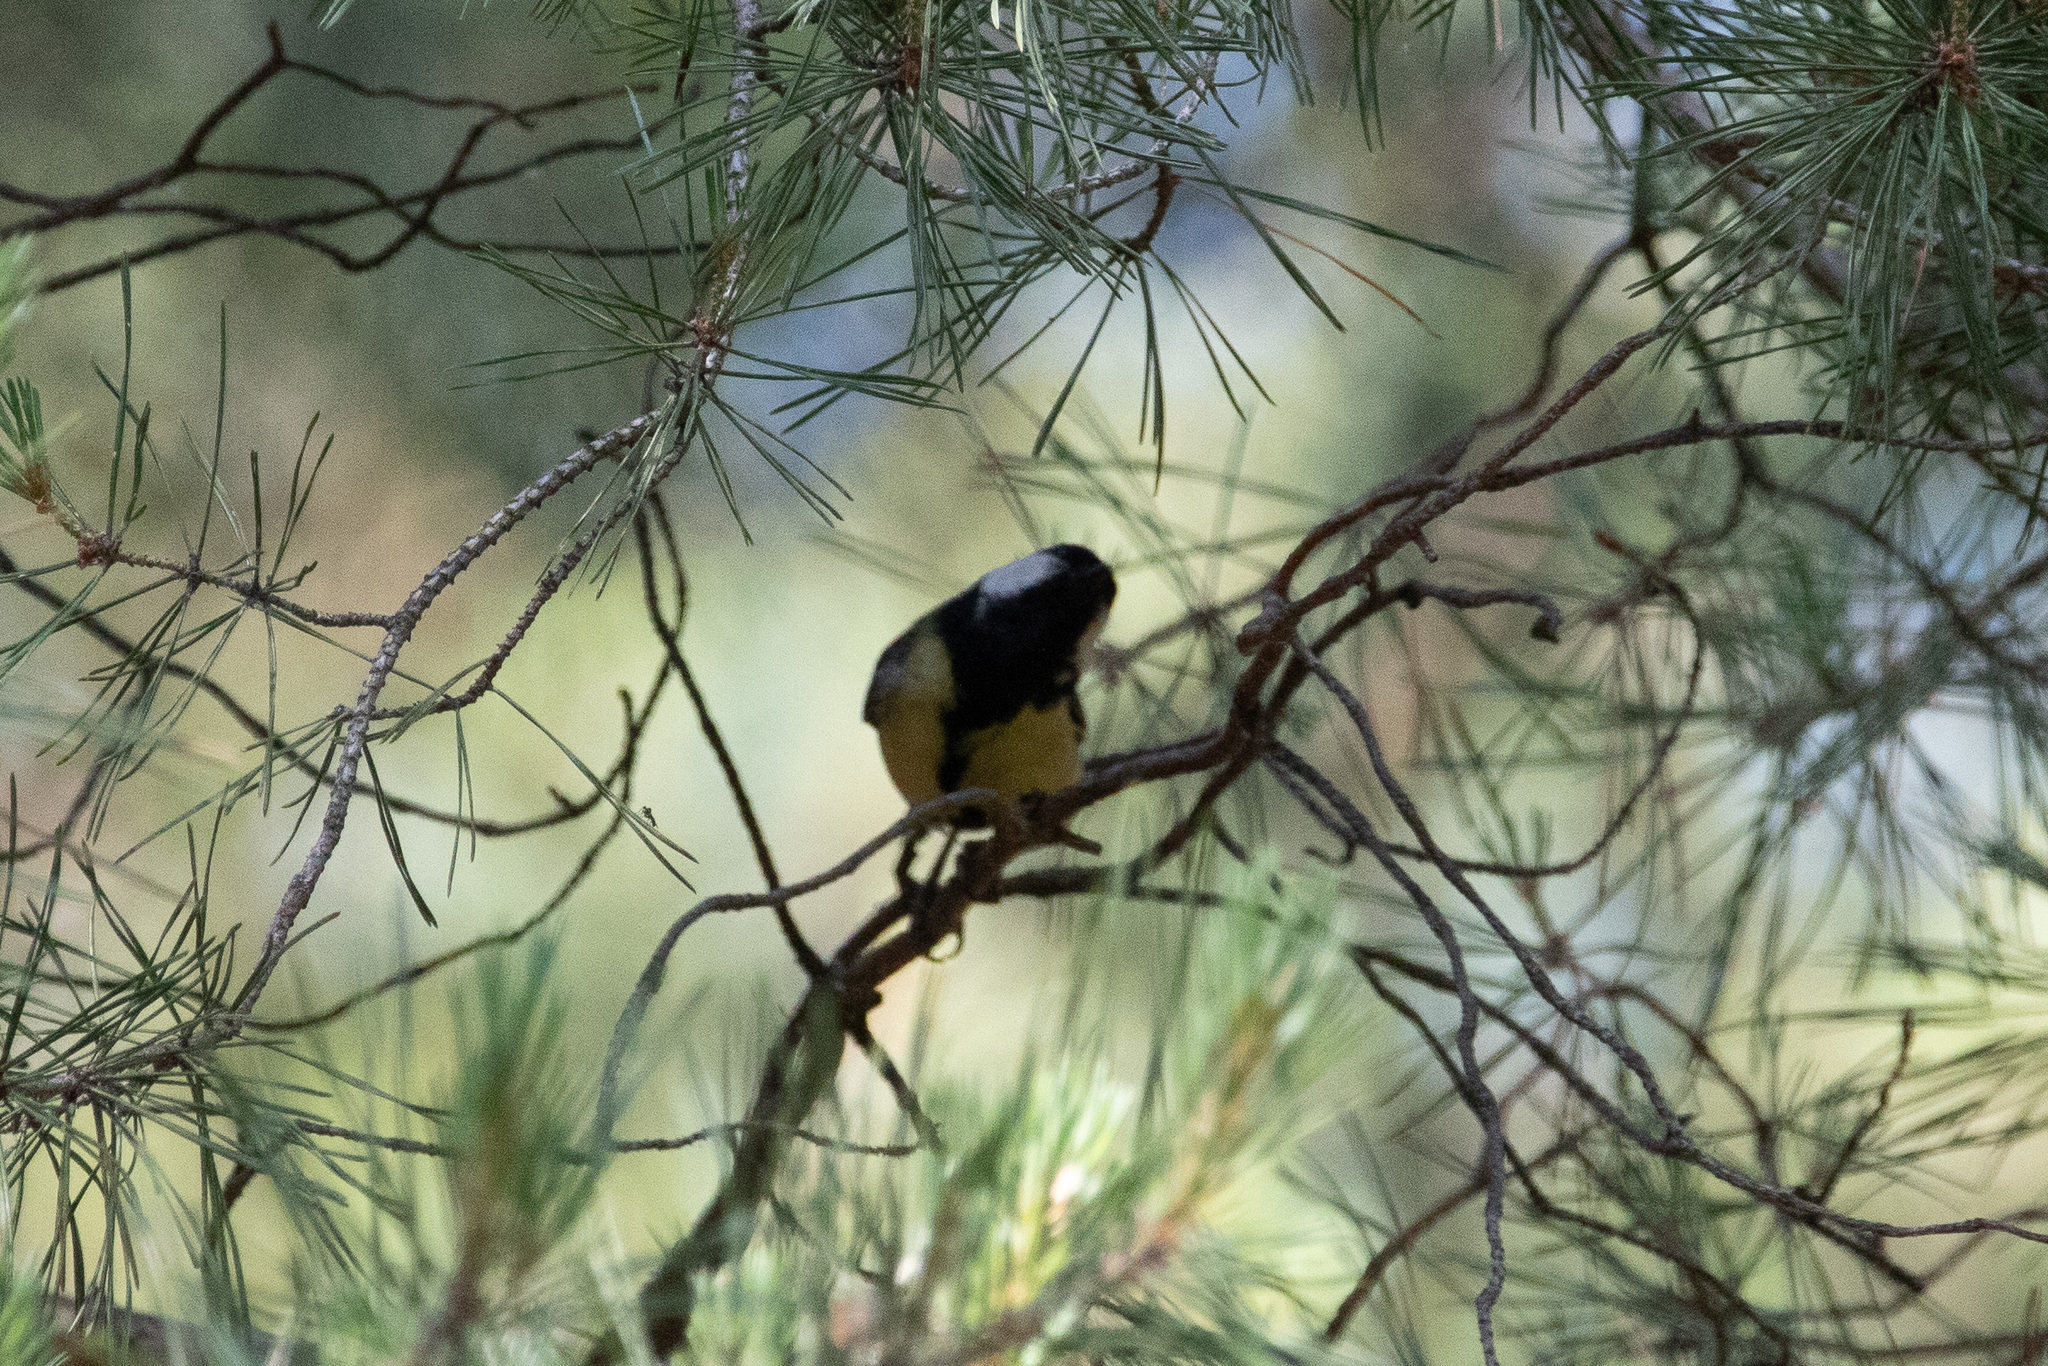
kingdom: Animalia
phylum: Chordata
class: Aves
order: Passeriformes
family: Paridae
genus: Parus
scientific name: Parus major
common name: Great tit
